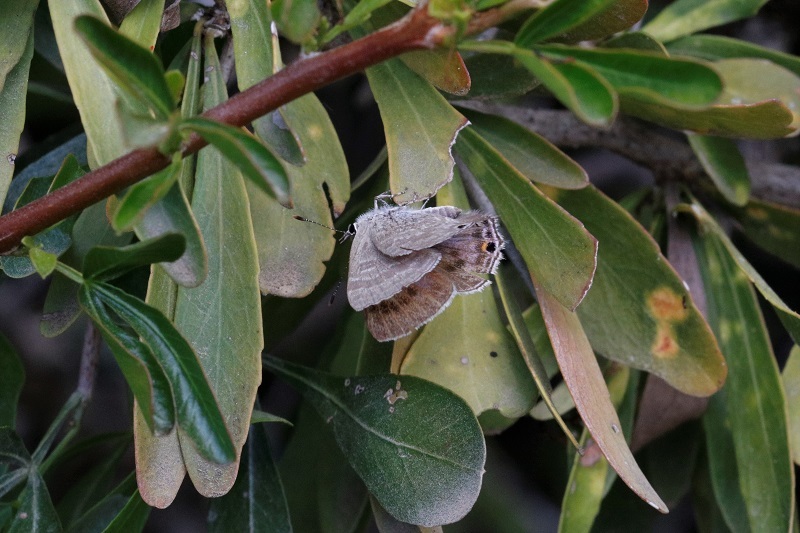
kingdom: Animalia
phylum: Arthropoda
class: Insecta
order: Lepidoptera
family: Lycaenidae
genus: Anthene
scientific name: Anthene livida
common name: Pale hairtail
